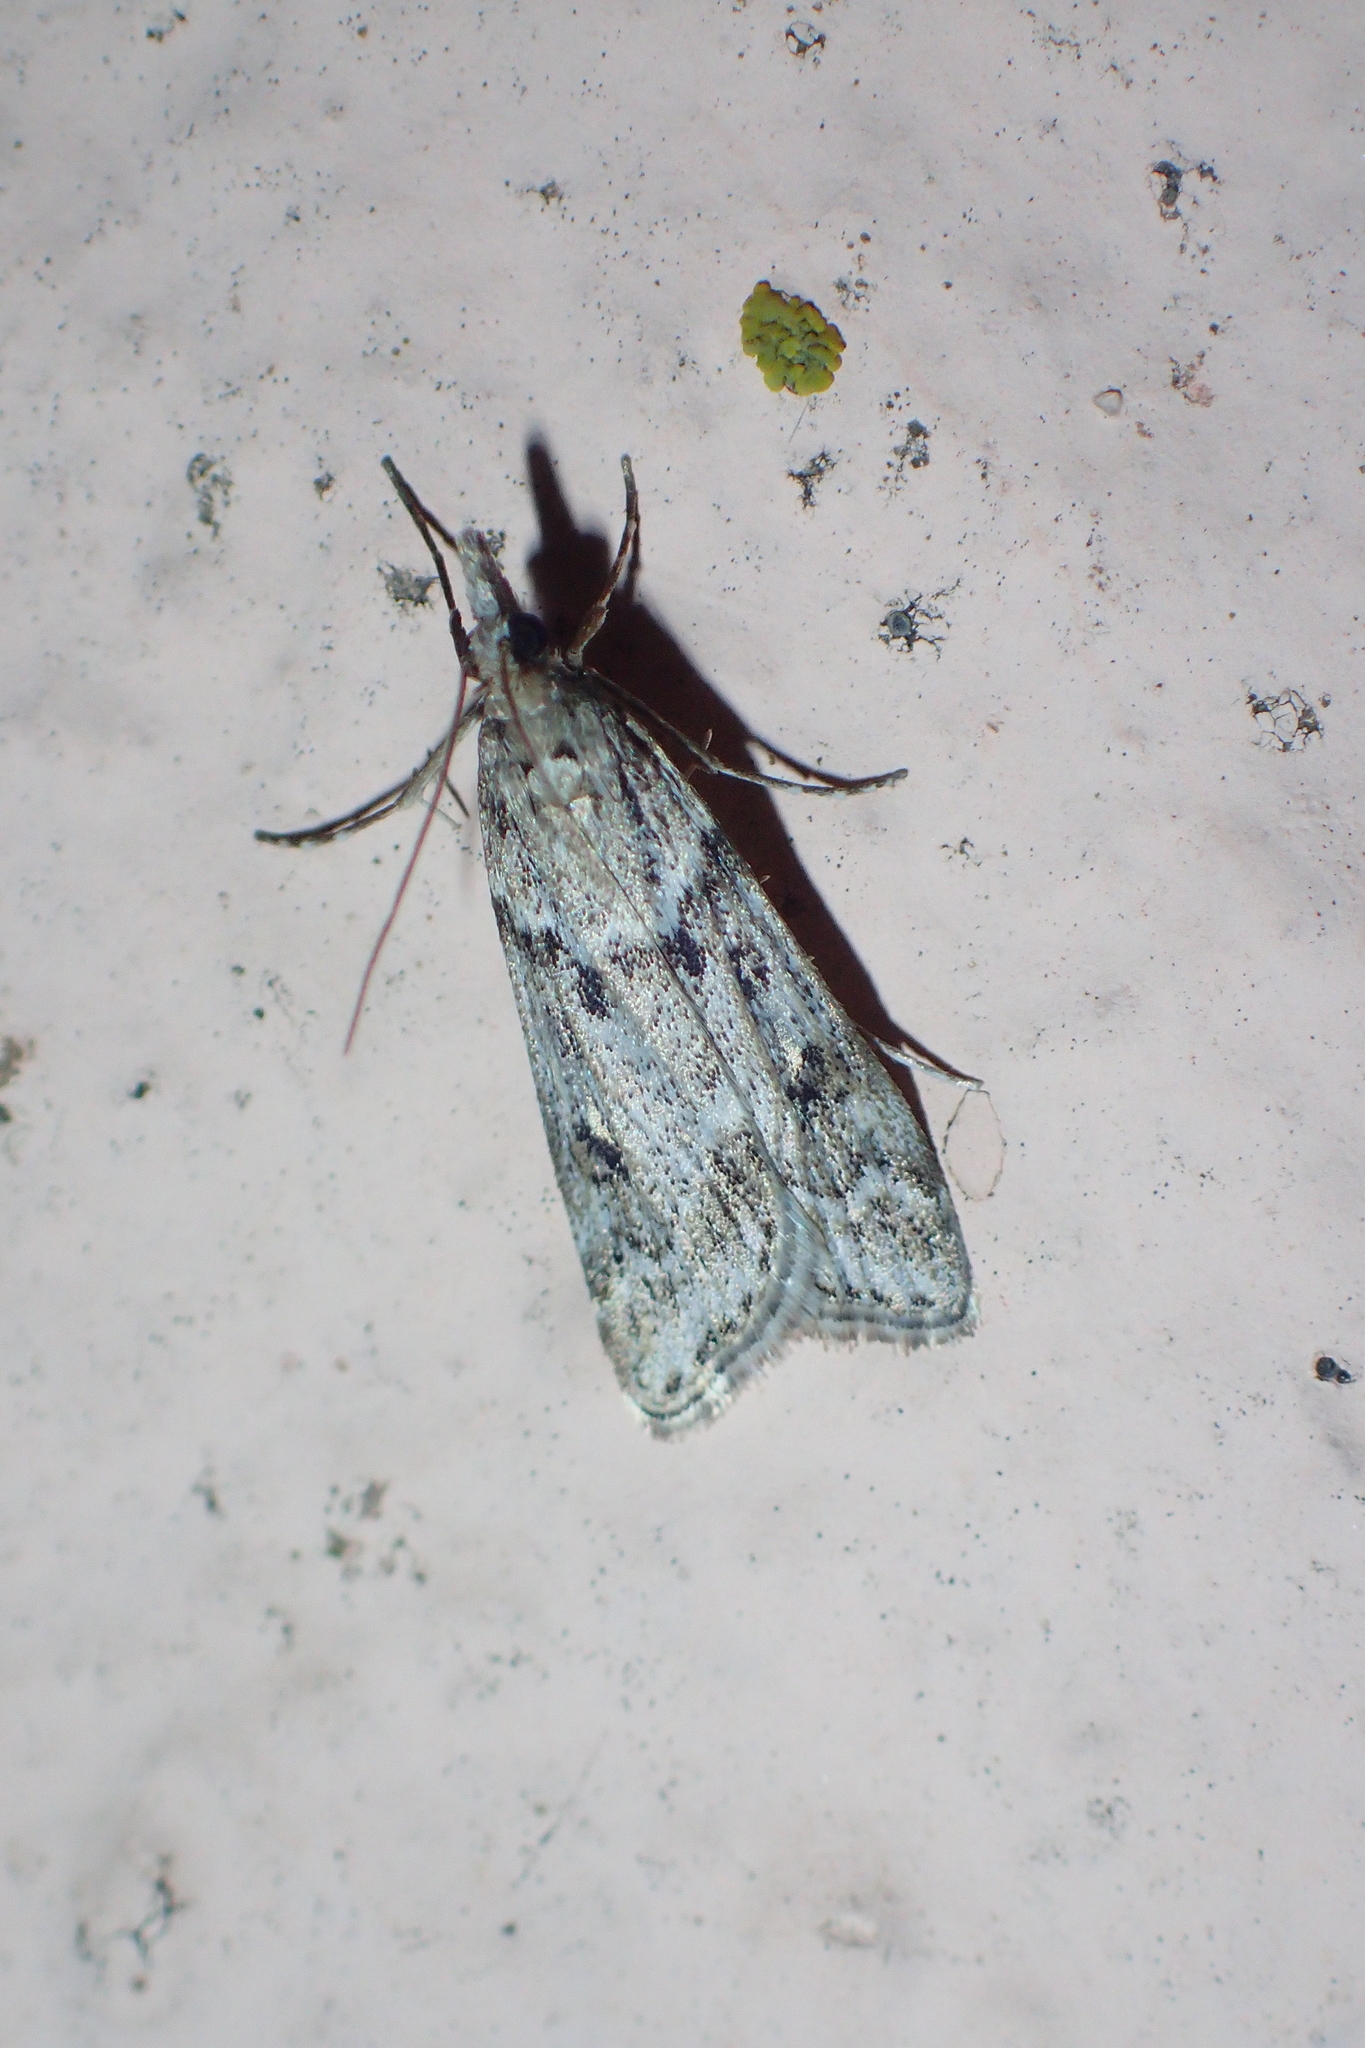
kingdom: Animalia
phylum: Arthropoda
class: Insecta
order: Lepidoptera
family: Crambidae
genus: Eudonia
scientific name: Eudonia angustea
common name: Narrow-winged grey
